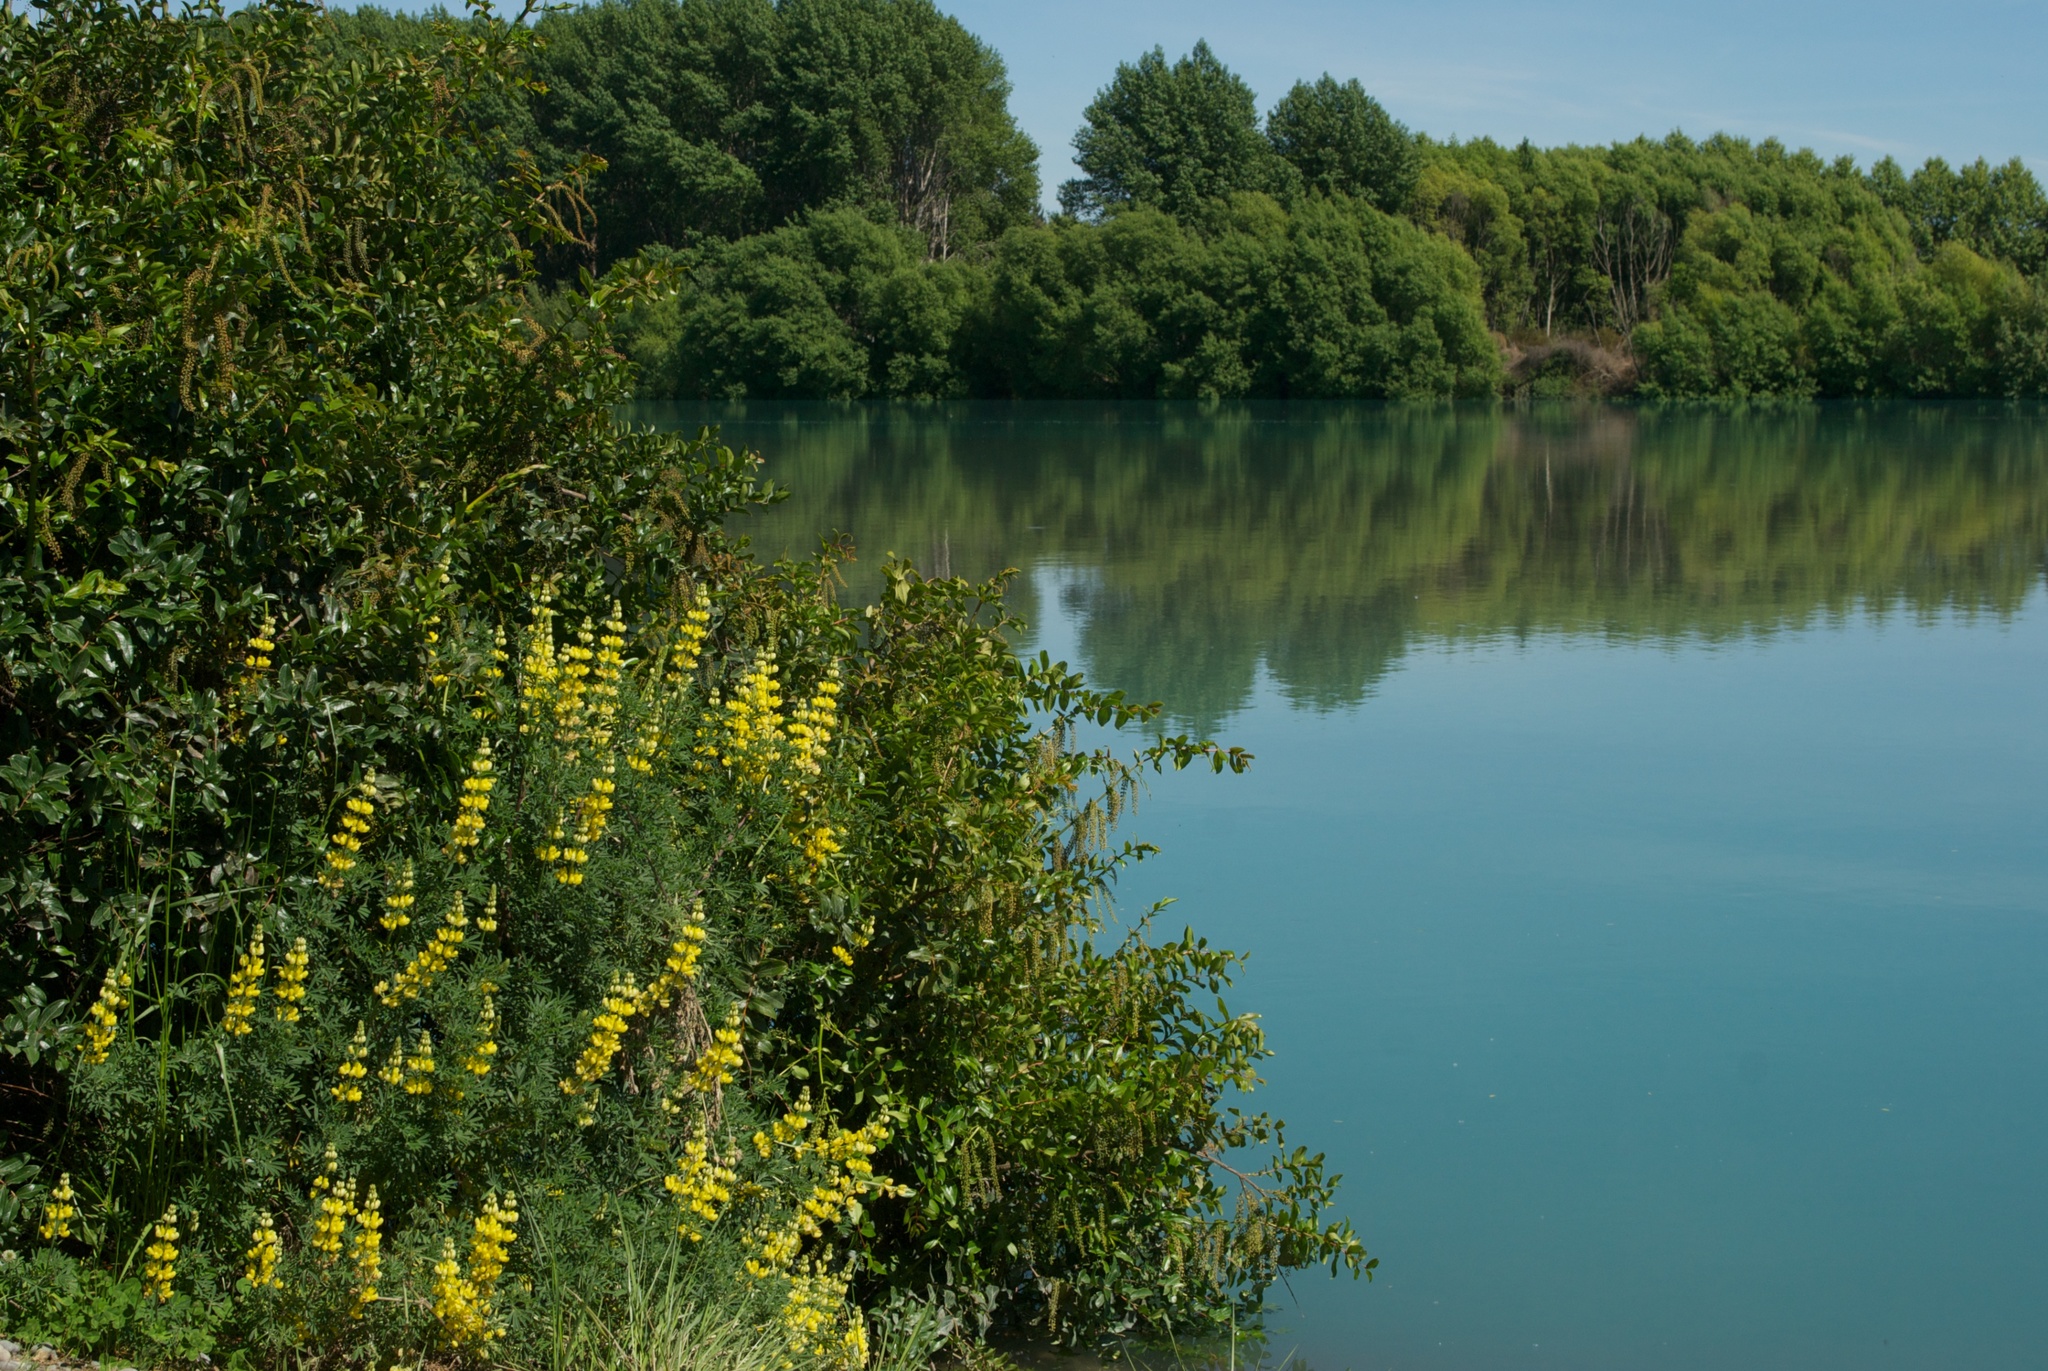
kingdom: Plantae
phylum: Tracheophyta
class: Magnoliopsida
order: Fabales
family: Fabaceae
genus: Lupinus
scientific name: Lupinus arboreus
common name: Yellow bush lupine
